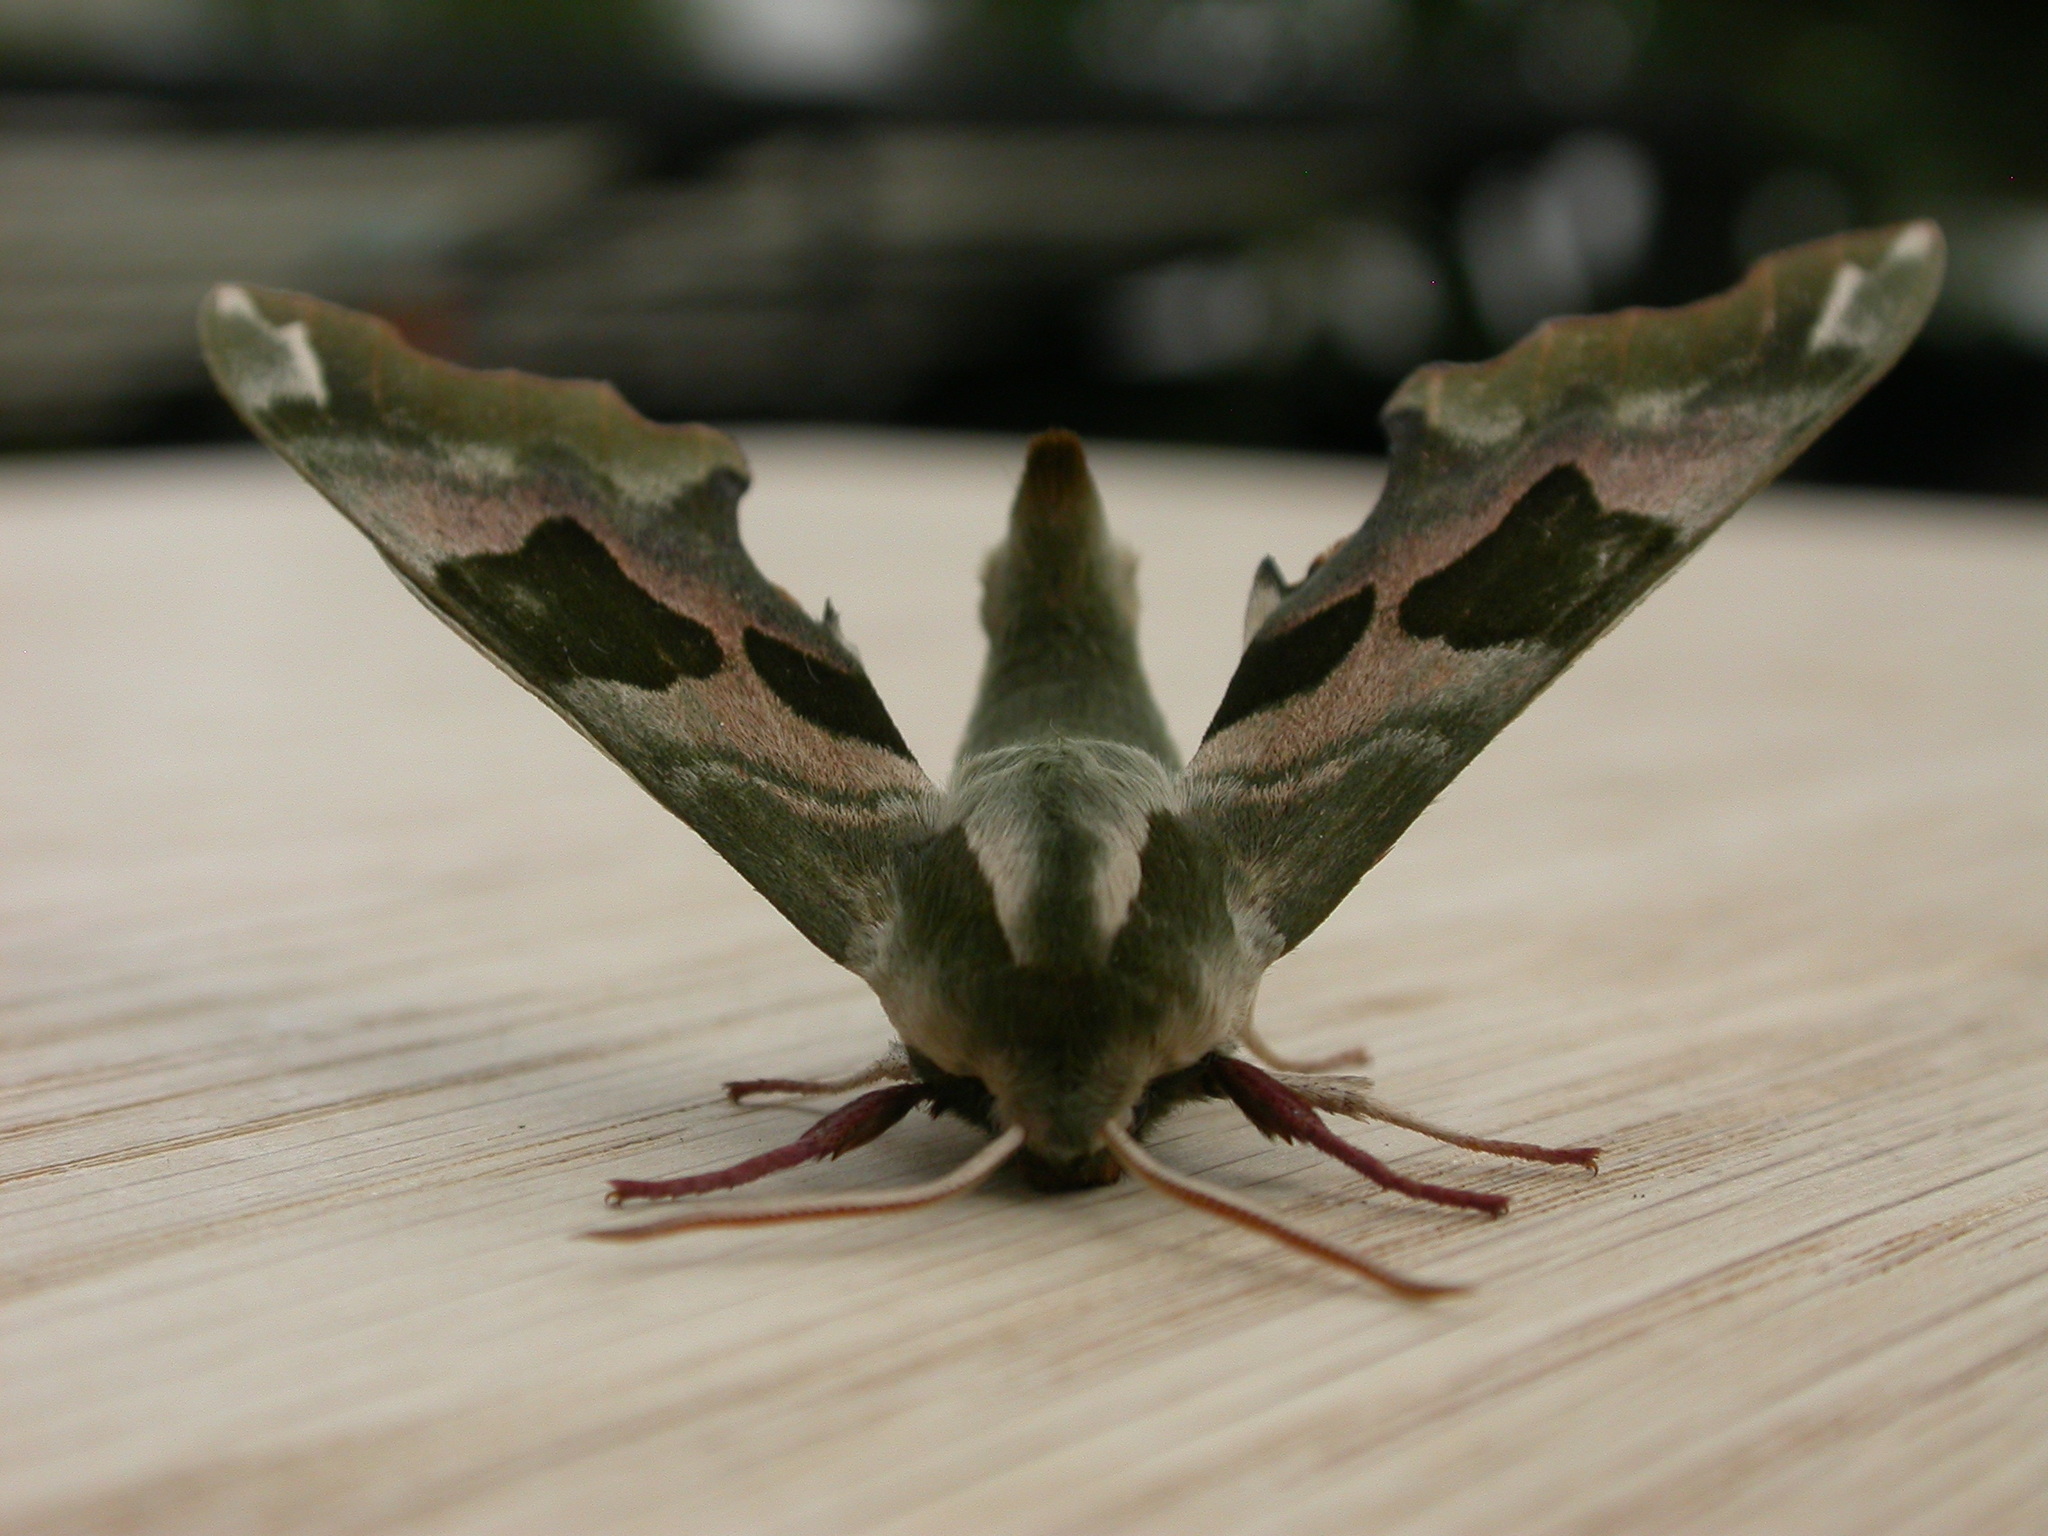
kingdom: Animalia
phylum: Arthropoda
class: Insecta
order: Lepidoptera
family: Sphingidae
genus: Mimas
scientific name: Mimas tiliae
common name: Lime hawk-moth
